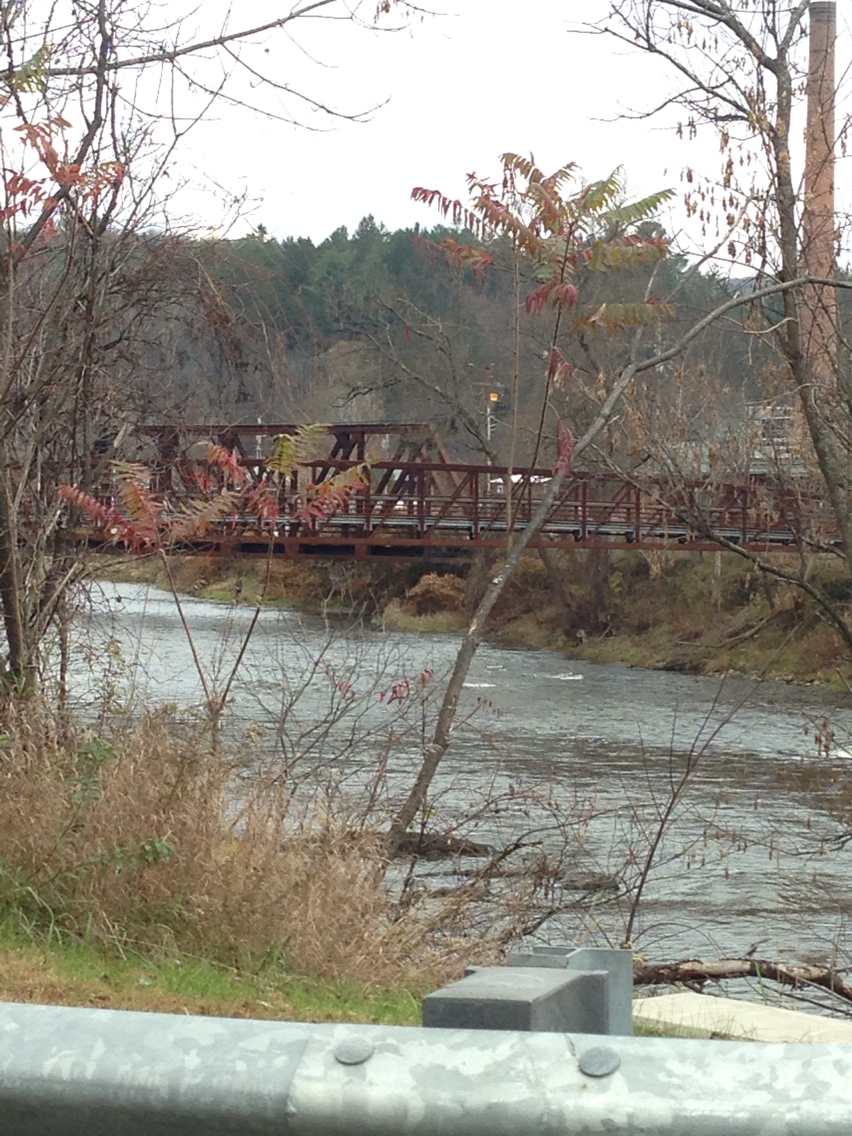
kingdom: Plantae
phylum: Tracheophyta
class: Magnoliopsida
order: Sapindales
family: Anacardiaceae
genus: Rhus
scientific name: Rhus typhina
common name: Staghorn sumac
